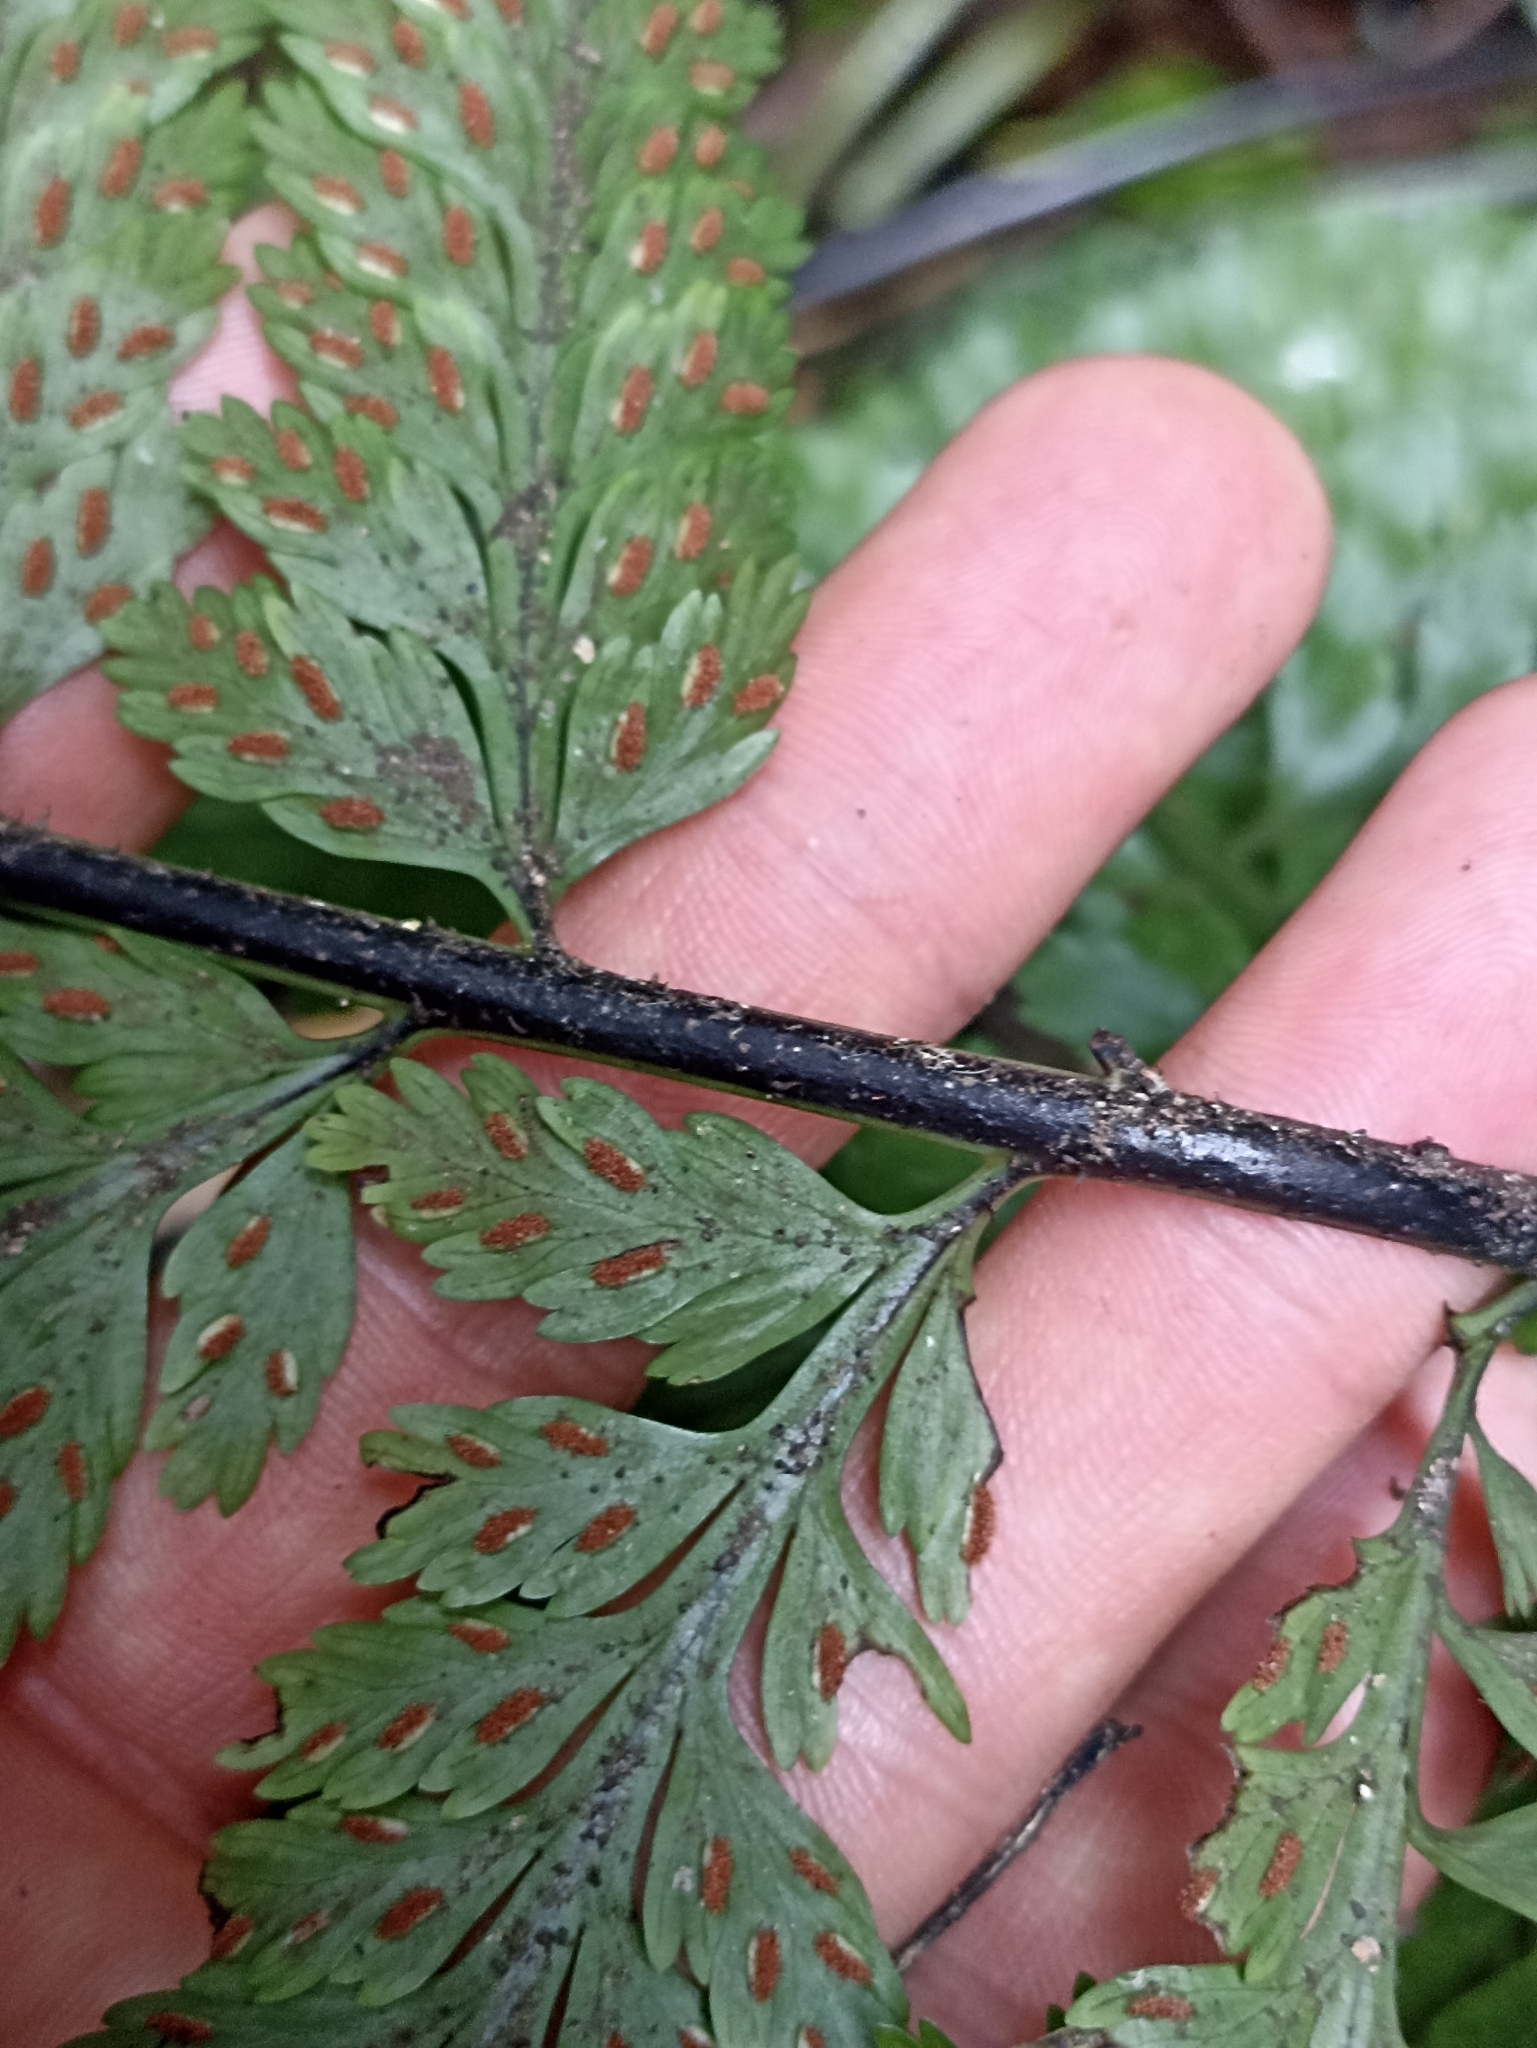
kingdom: Plantae
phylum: Tracheophyta
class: Polypodiopsida
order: Polypodiales
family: Aspleniaceae
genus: Asplenium
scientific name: Asplenium bulbiferum
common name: Mother fern
